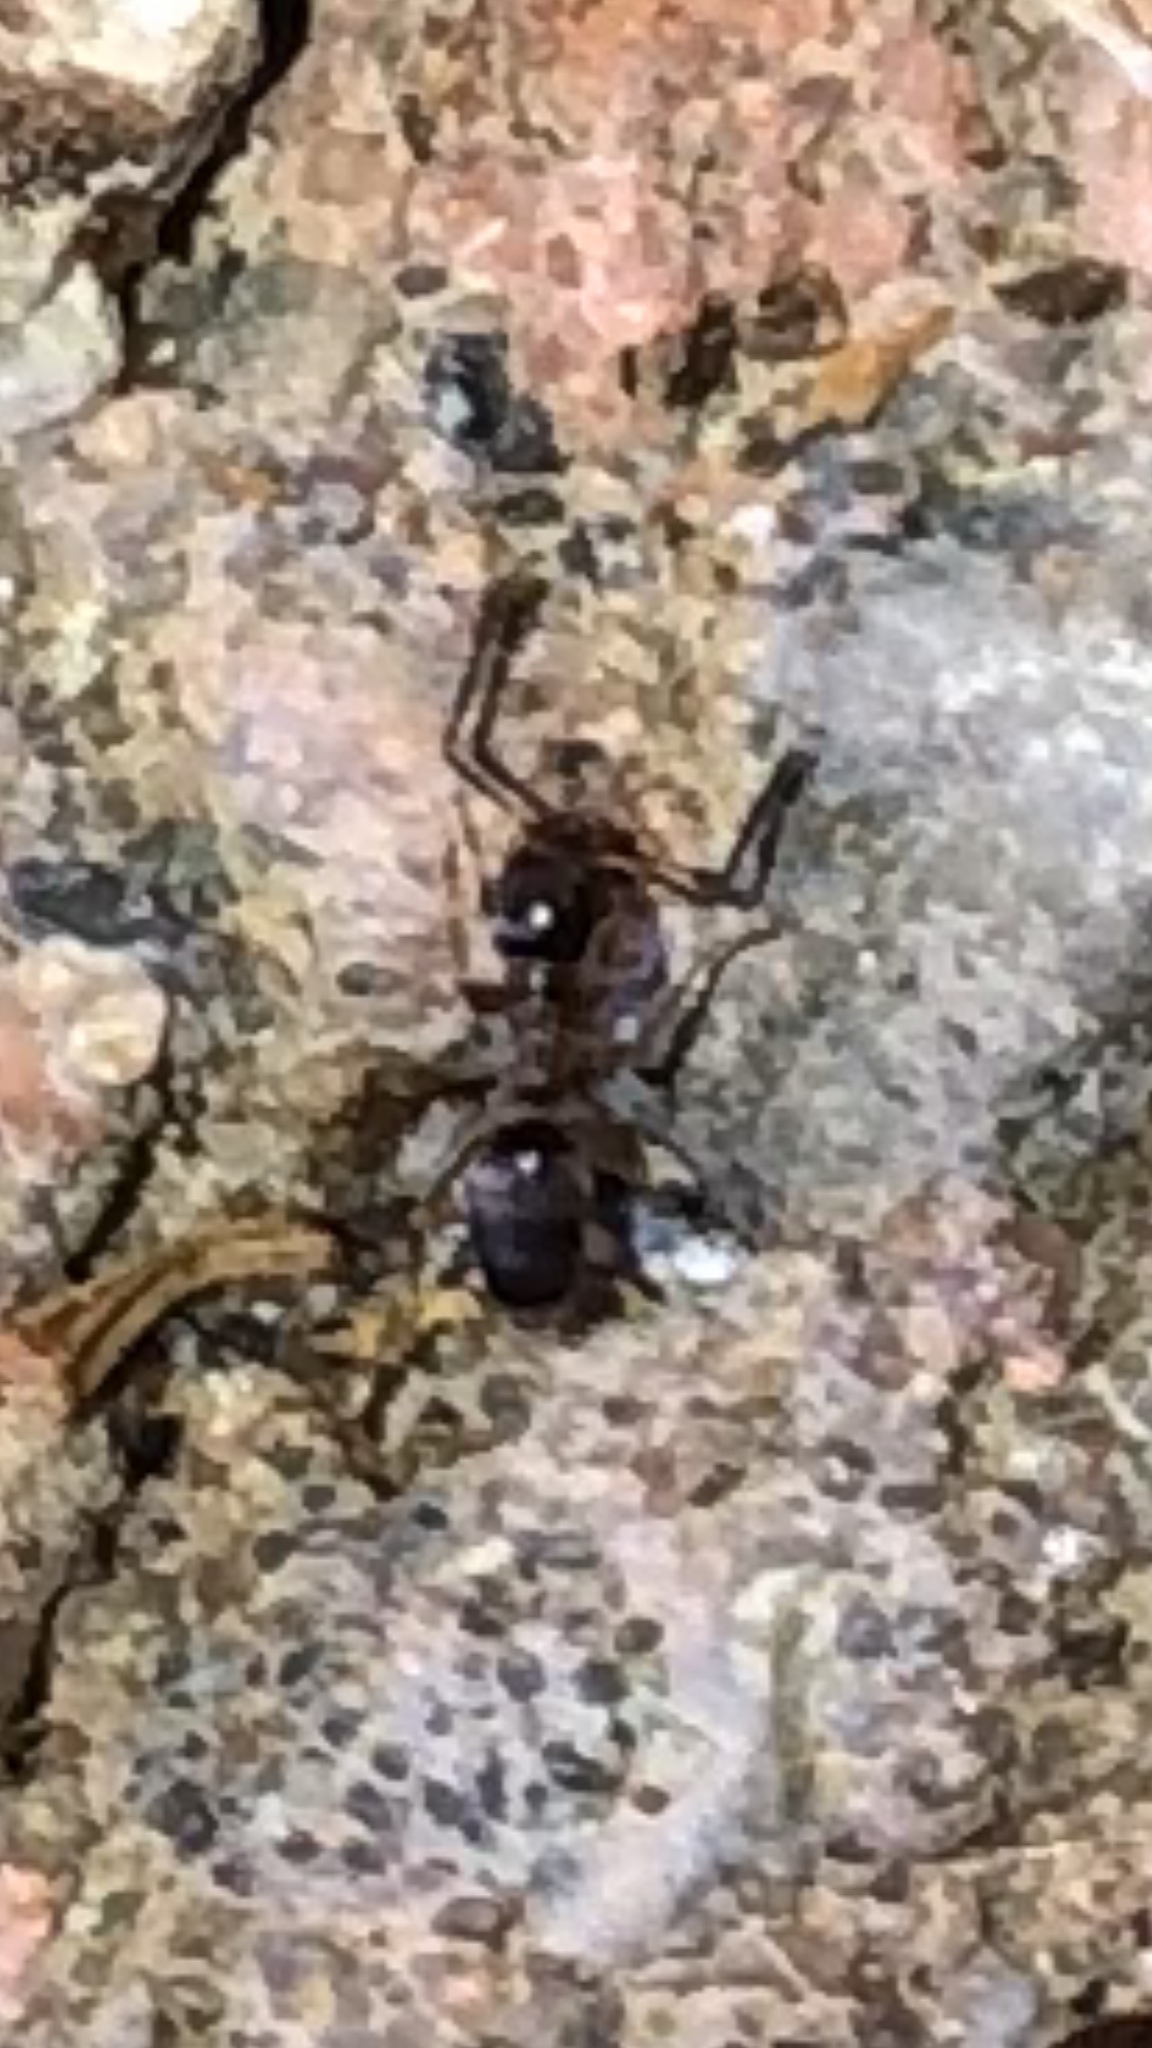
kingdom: Animalia
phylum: Arthropoda
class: Insecta
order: Hymenoptera
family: Formicidae
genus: Tapinoma
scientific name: Tapinoma sessile
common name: Odorous house ant
